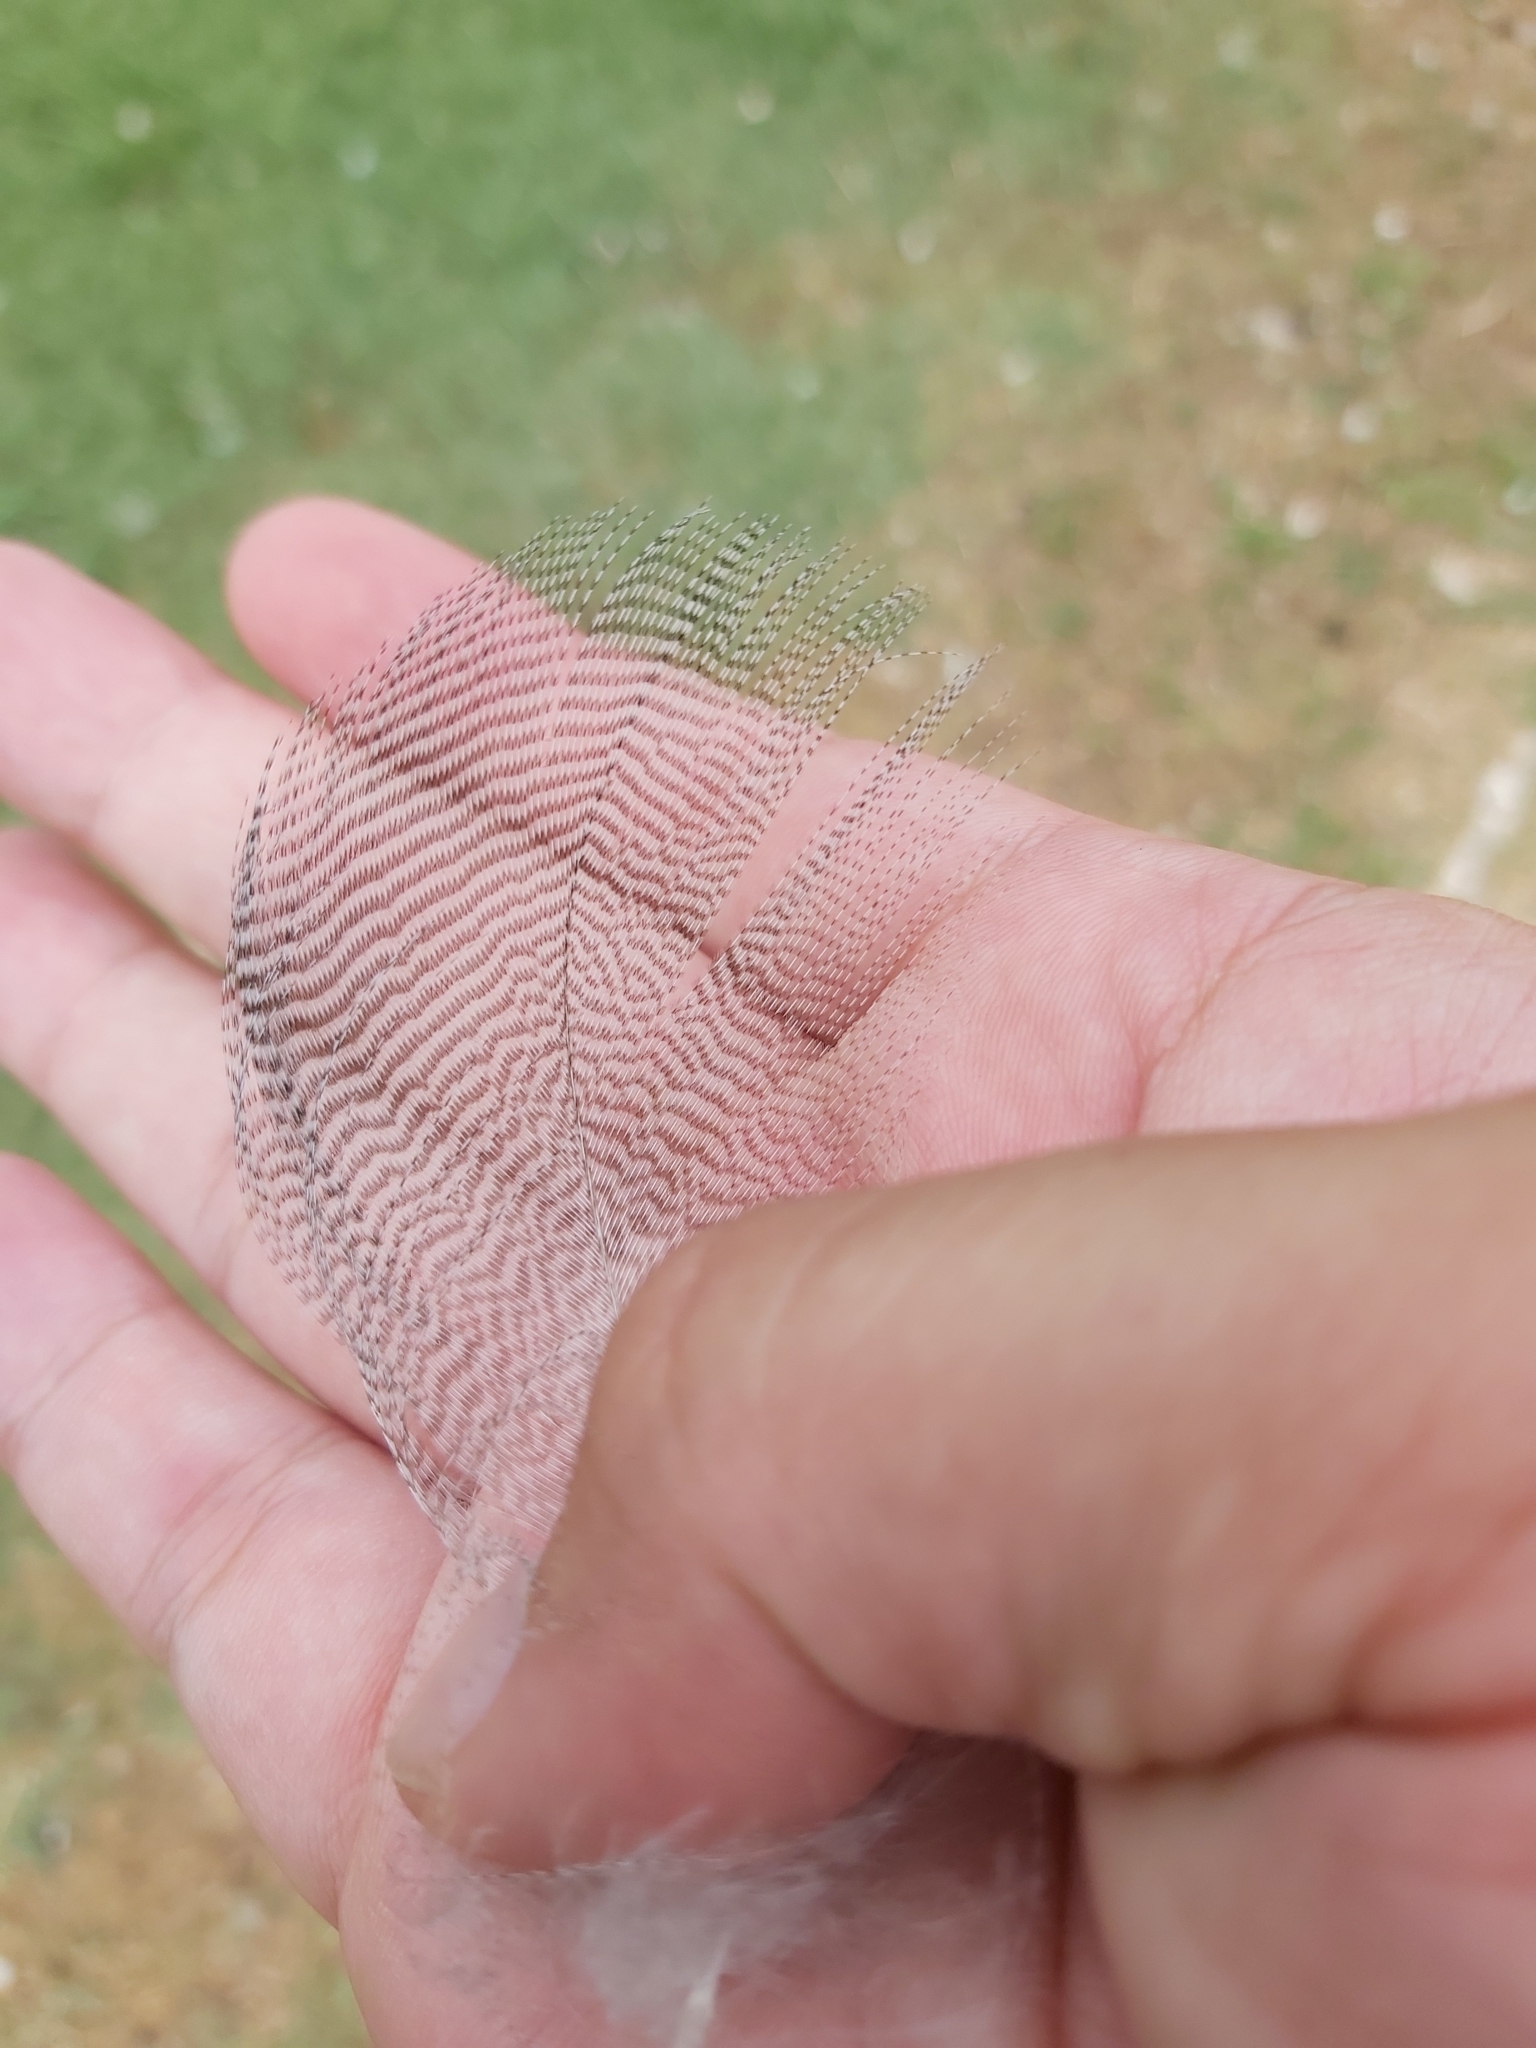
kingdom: Animalia
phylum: Chordata
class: Aves
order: Anseriformes
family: Anatidae
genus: Chenonetta
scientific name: Chenonetta jubata
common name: Maned duck
